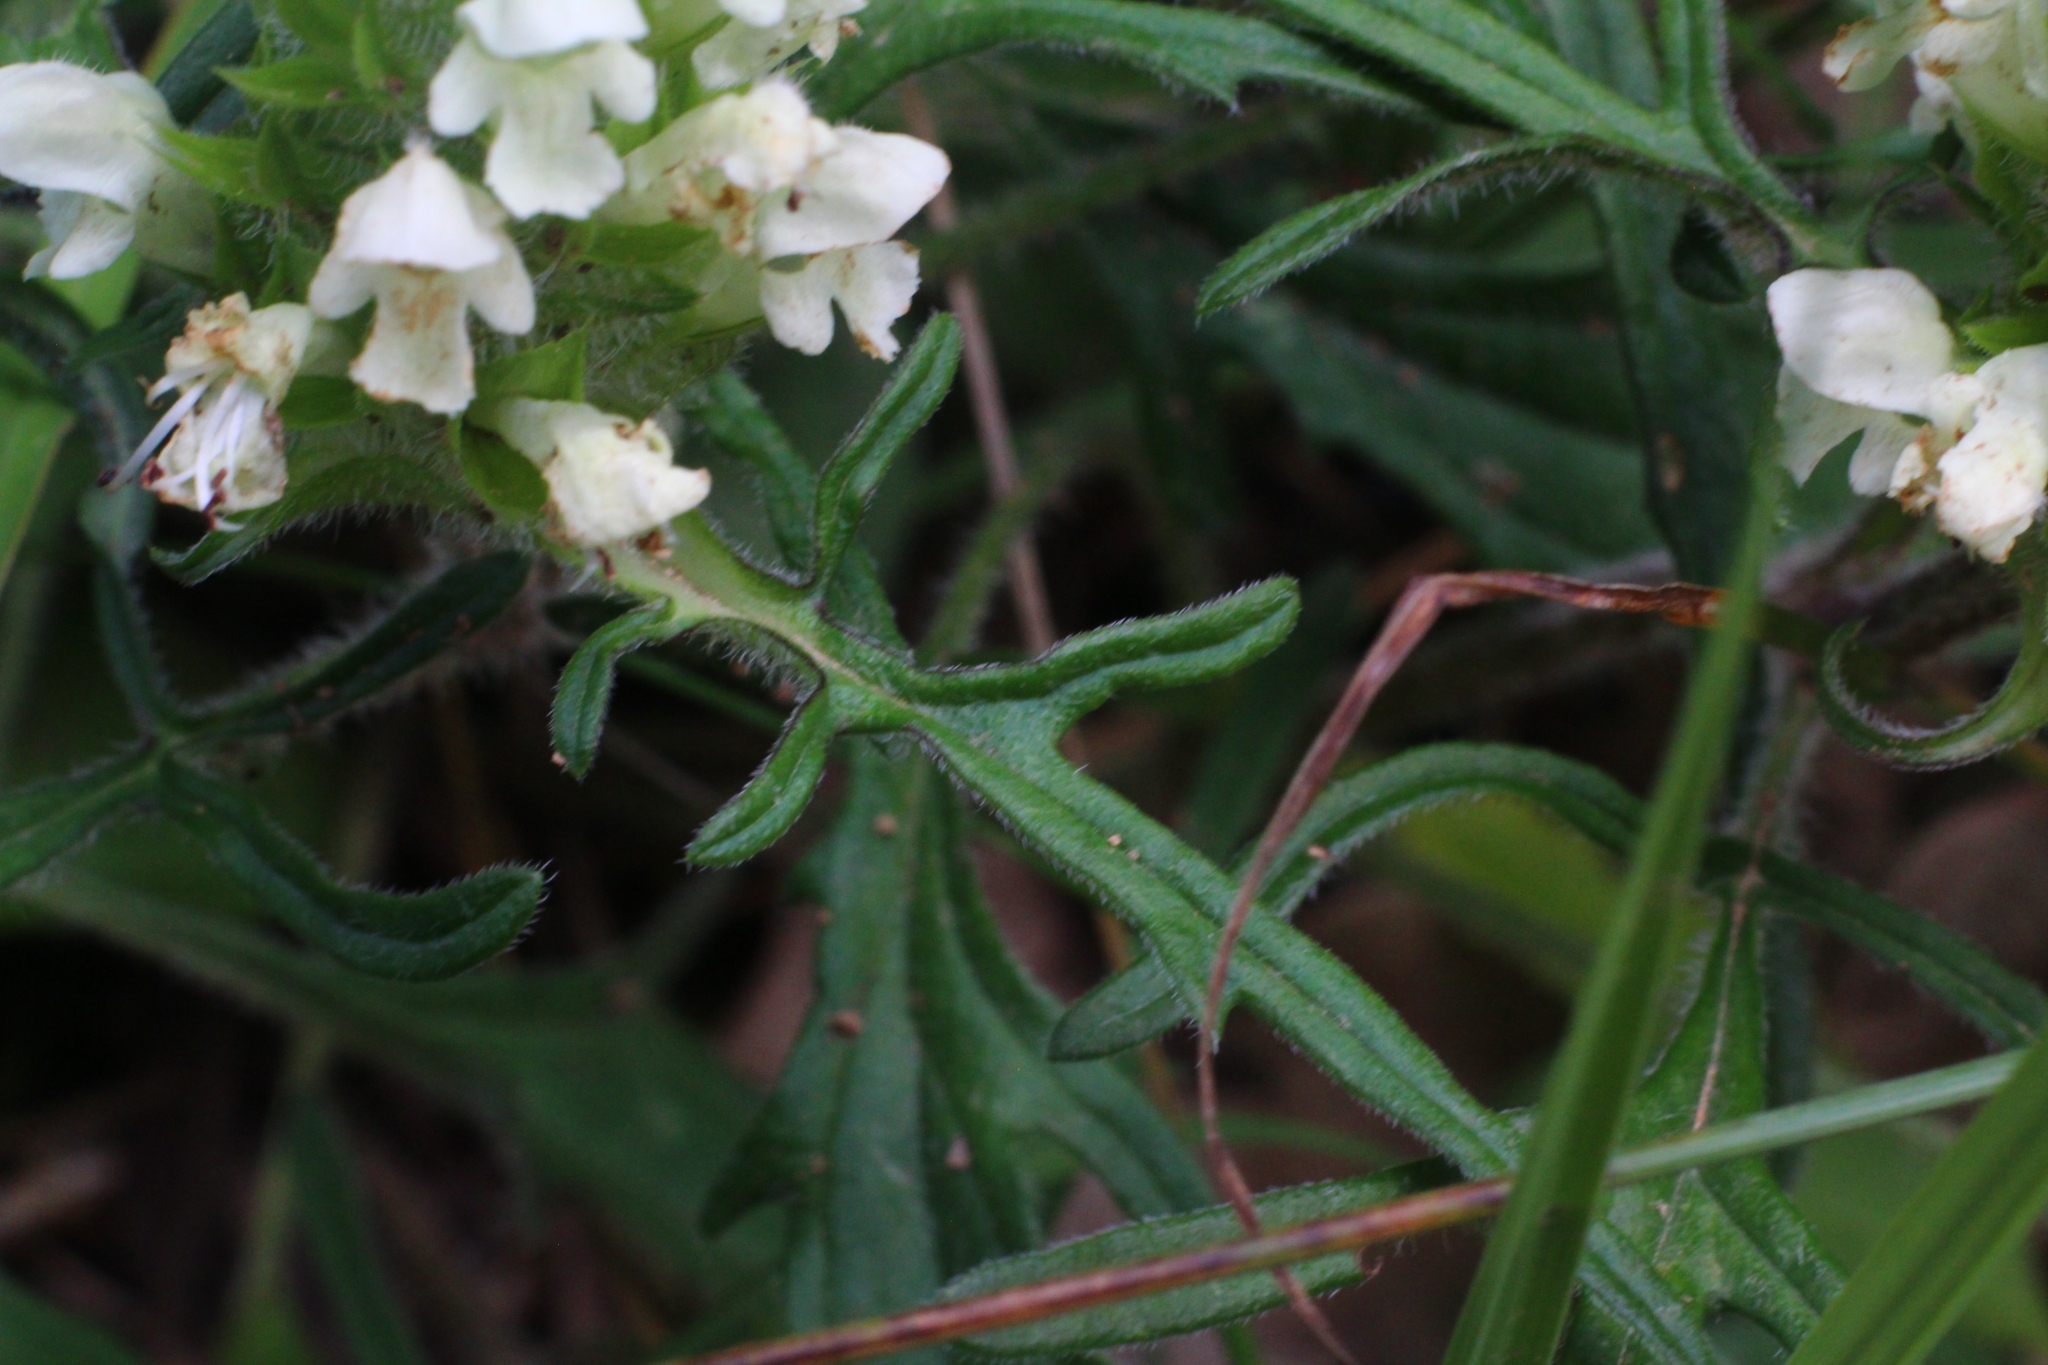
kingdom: Plantae
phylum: Tracheophyta
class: Magnoliopsida
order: Lamiales
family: Lamiaceae
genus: Prunella
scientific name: Prunella laciniata
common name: Cut-leaved selfheal
